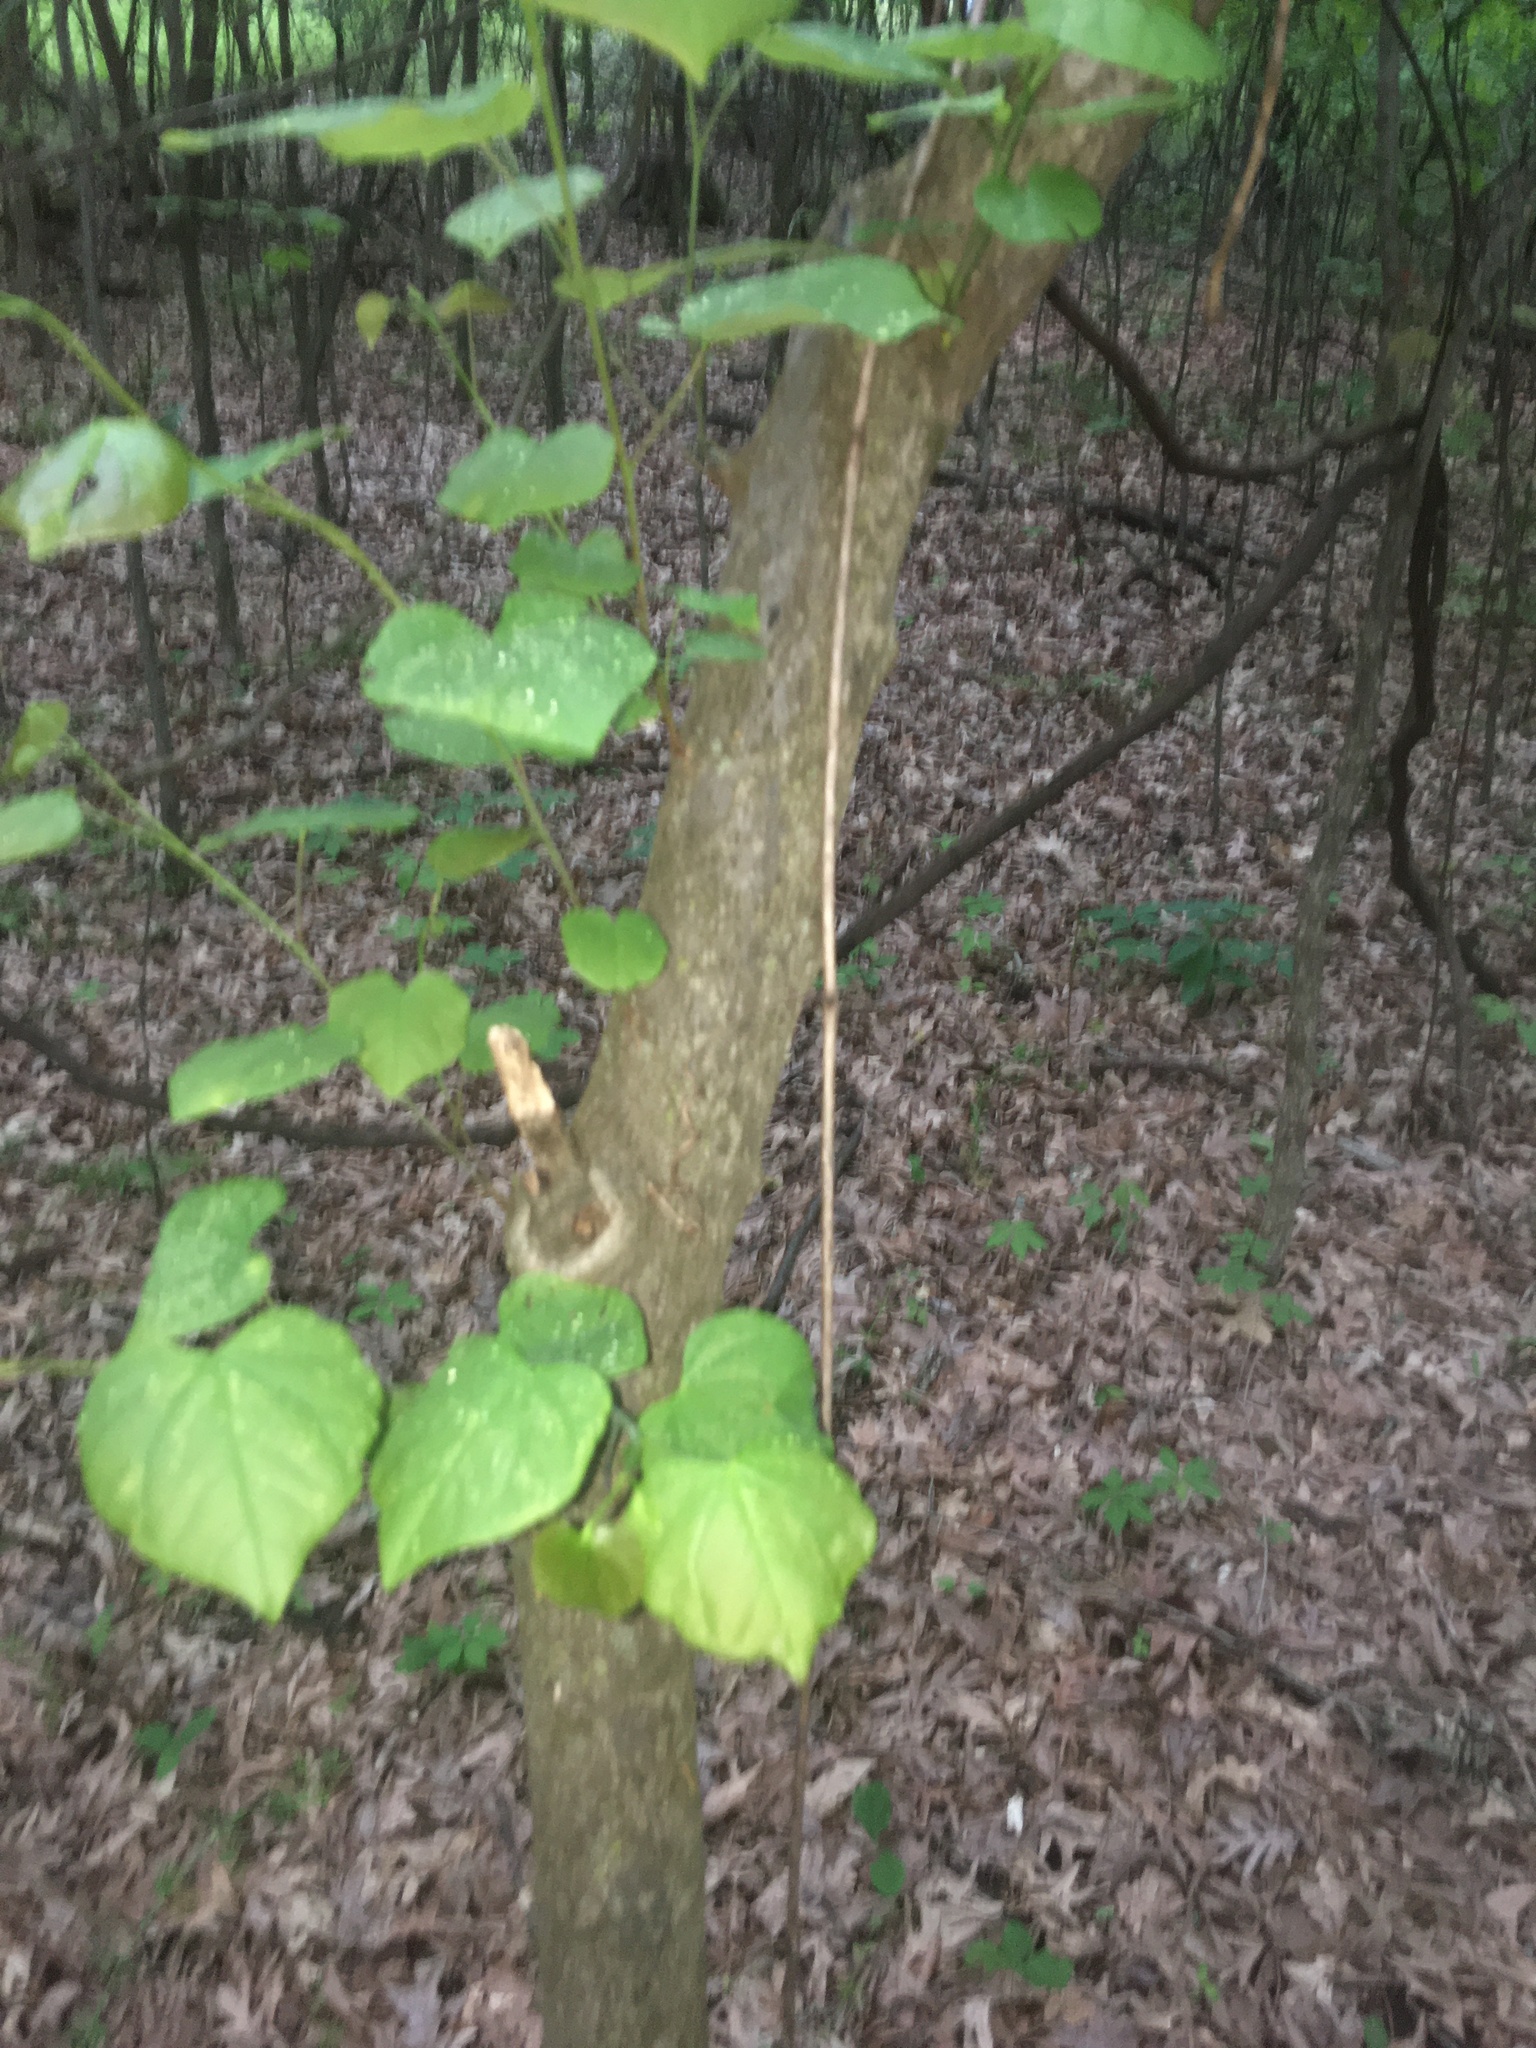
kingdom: Plantae
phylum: Tracheophyta
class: Magnoliopsida
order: Fabales
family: Fabaceae
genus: Cercis
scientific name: Cercis canadensis
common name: Eastern redbud
